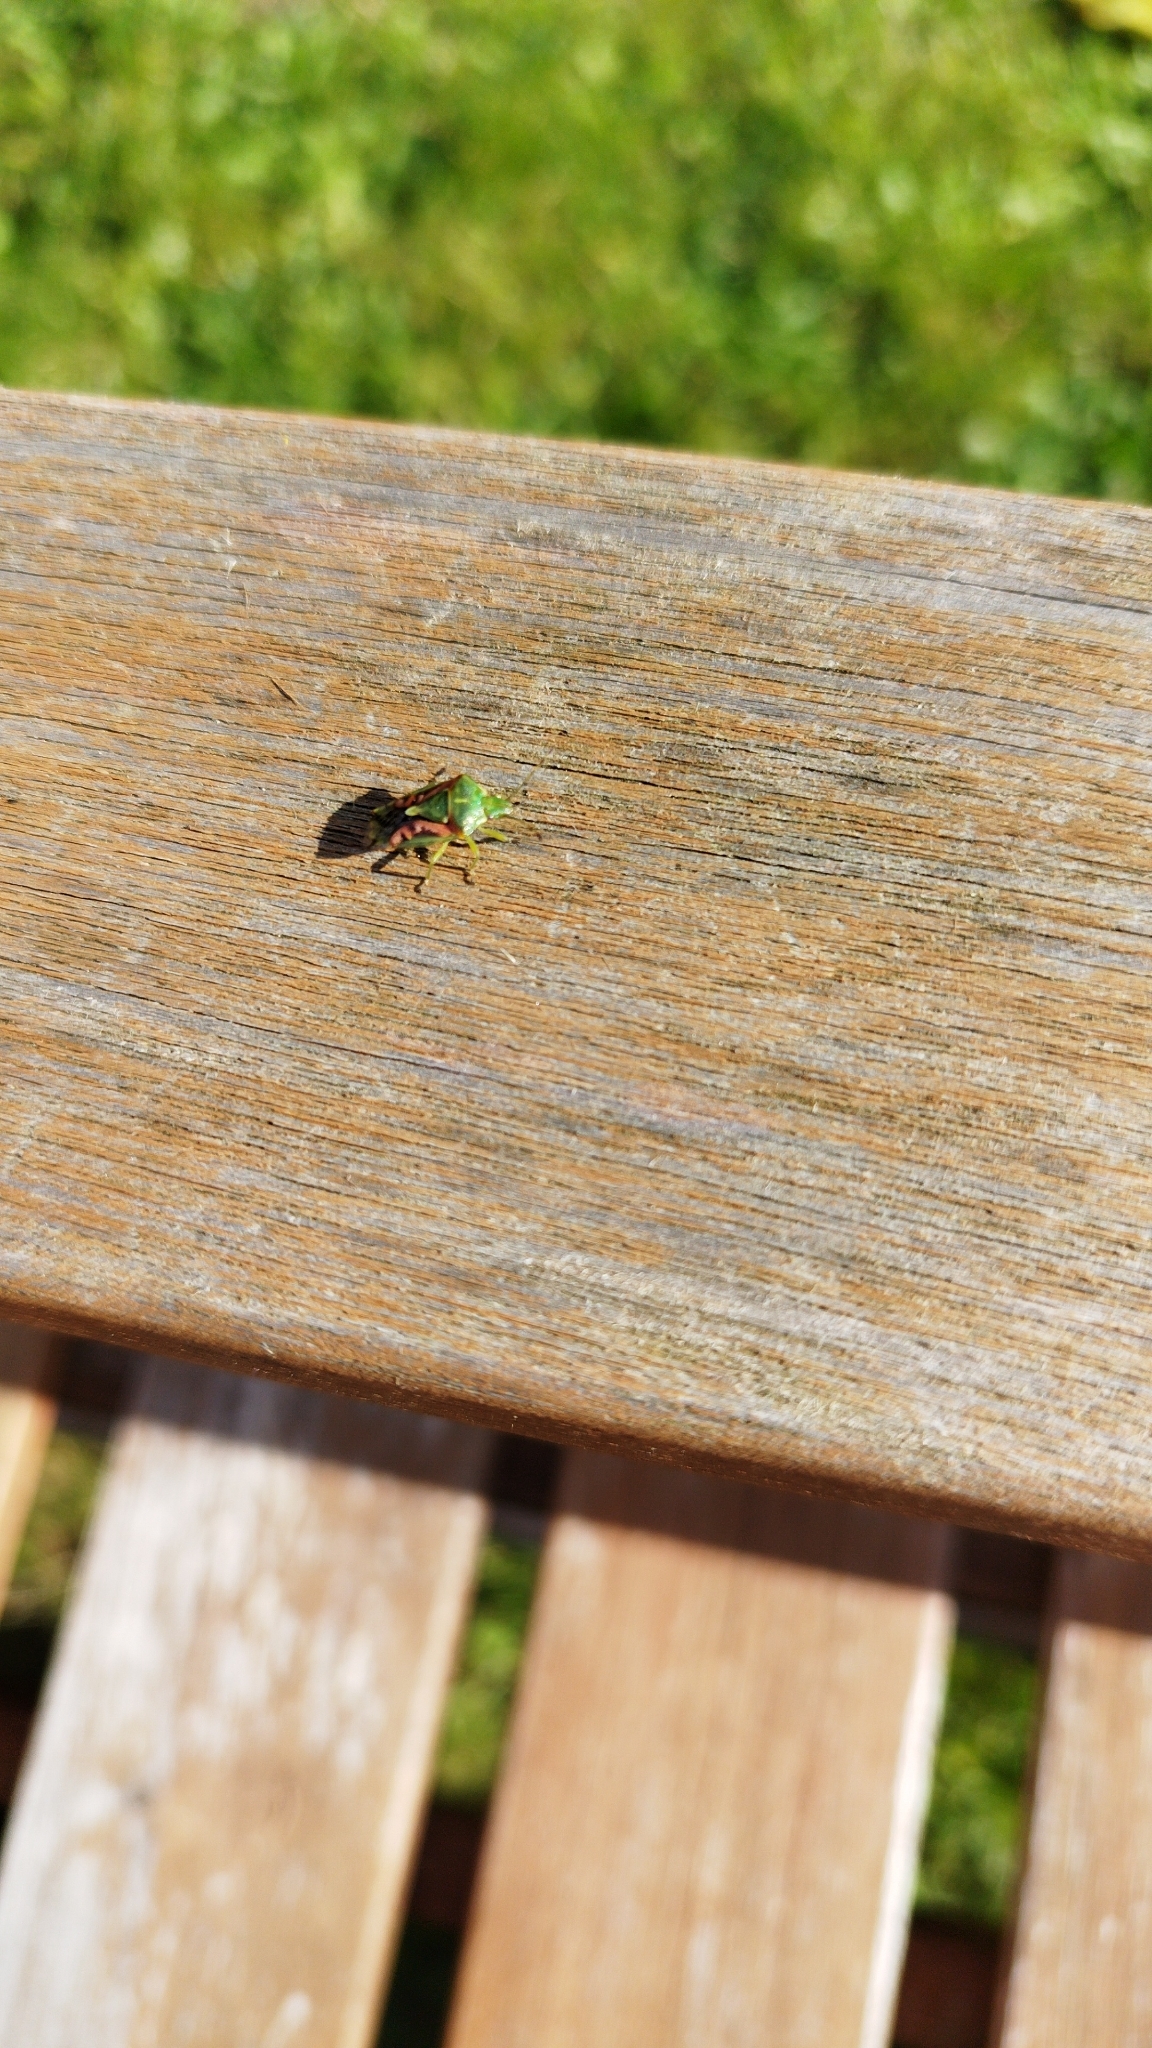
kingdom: Animalia
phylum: Arthropoda
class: Insecta
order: Hemiptera
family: Acanthosomatidae
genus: Cyphostethus
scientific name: Cyphostethus tristriatus
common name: Juniper shieldbug
